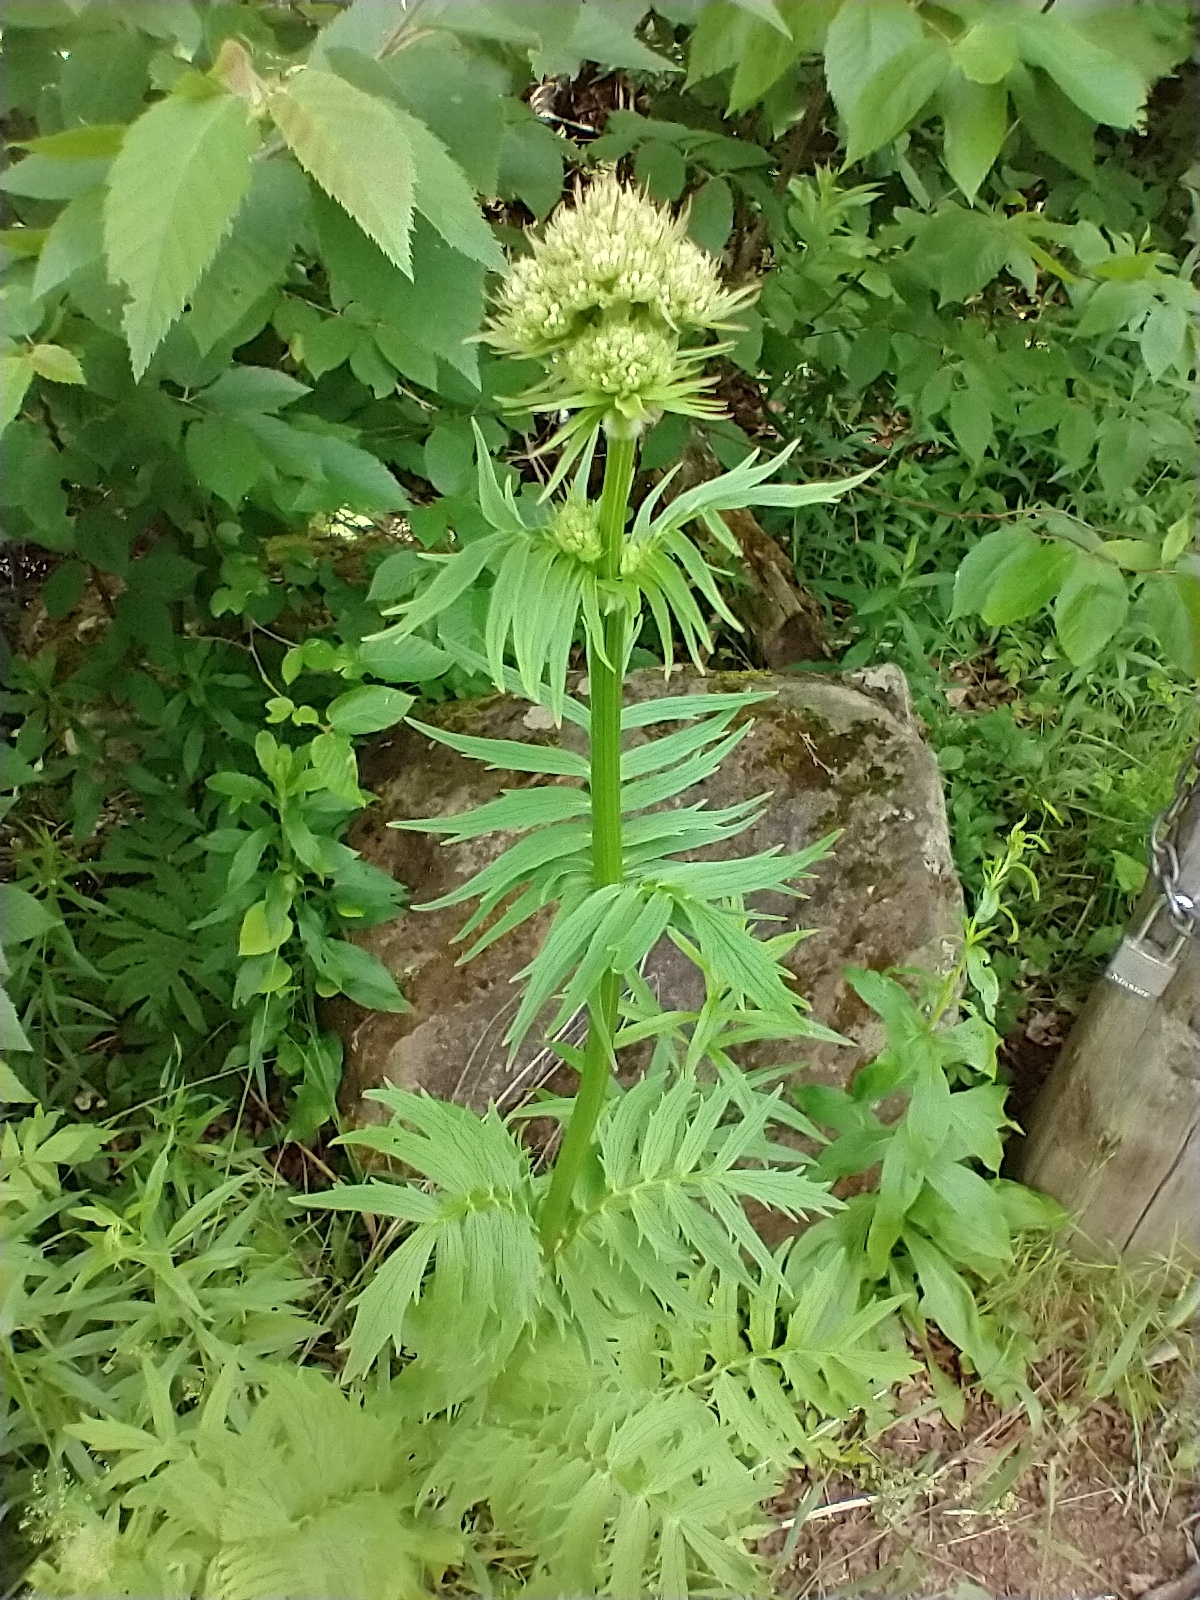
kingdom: Plantae
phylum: Tracheophyta
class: Magnoliopsida
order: Dipsacales
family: Caprifoliaceae
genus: Valeriana
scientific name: Valeriana officinalis
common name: Common valerian
